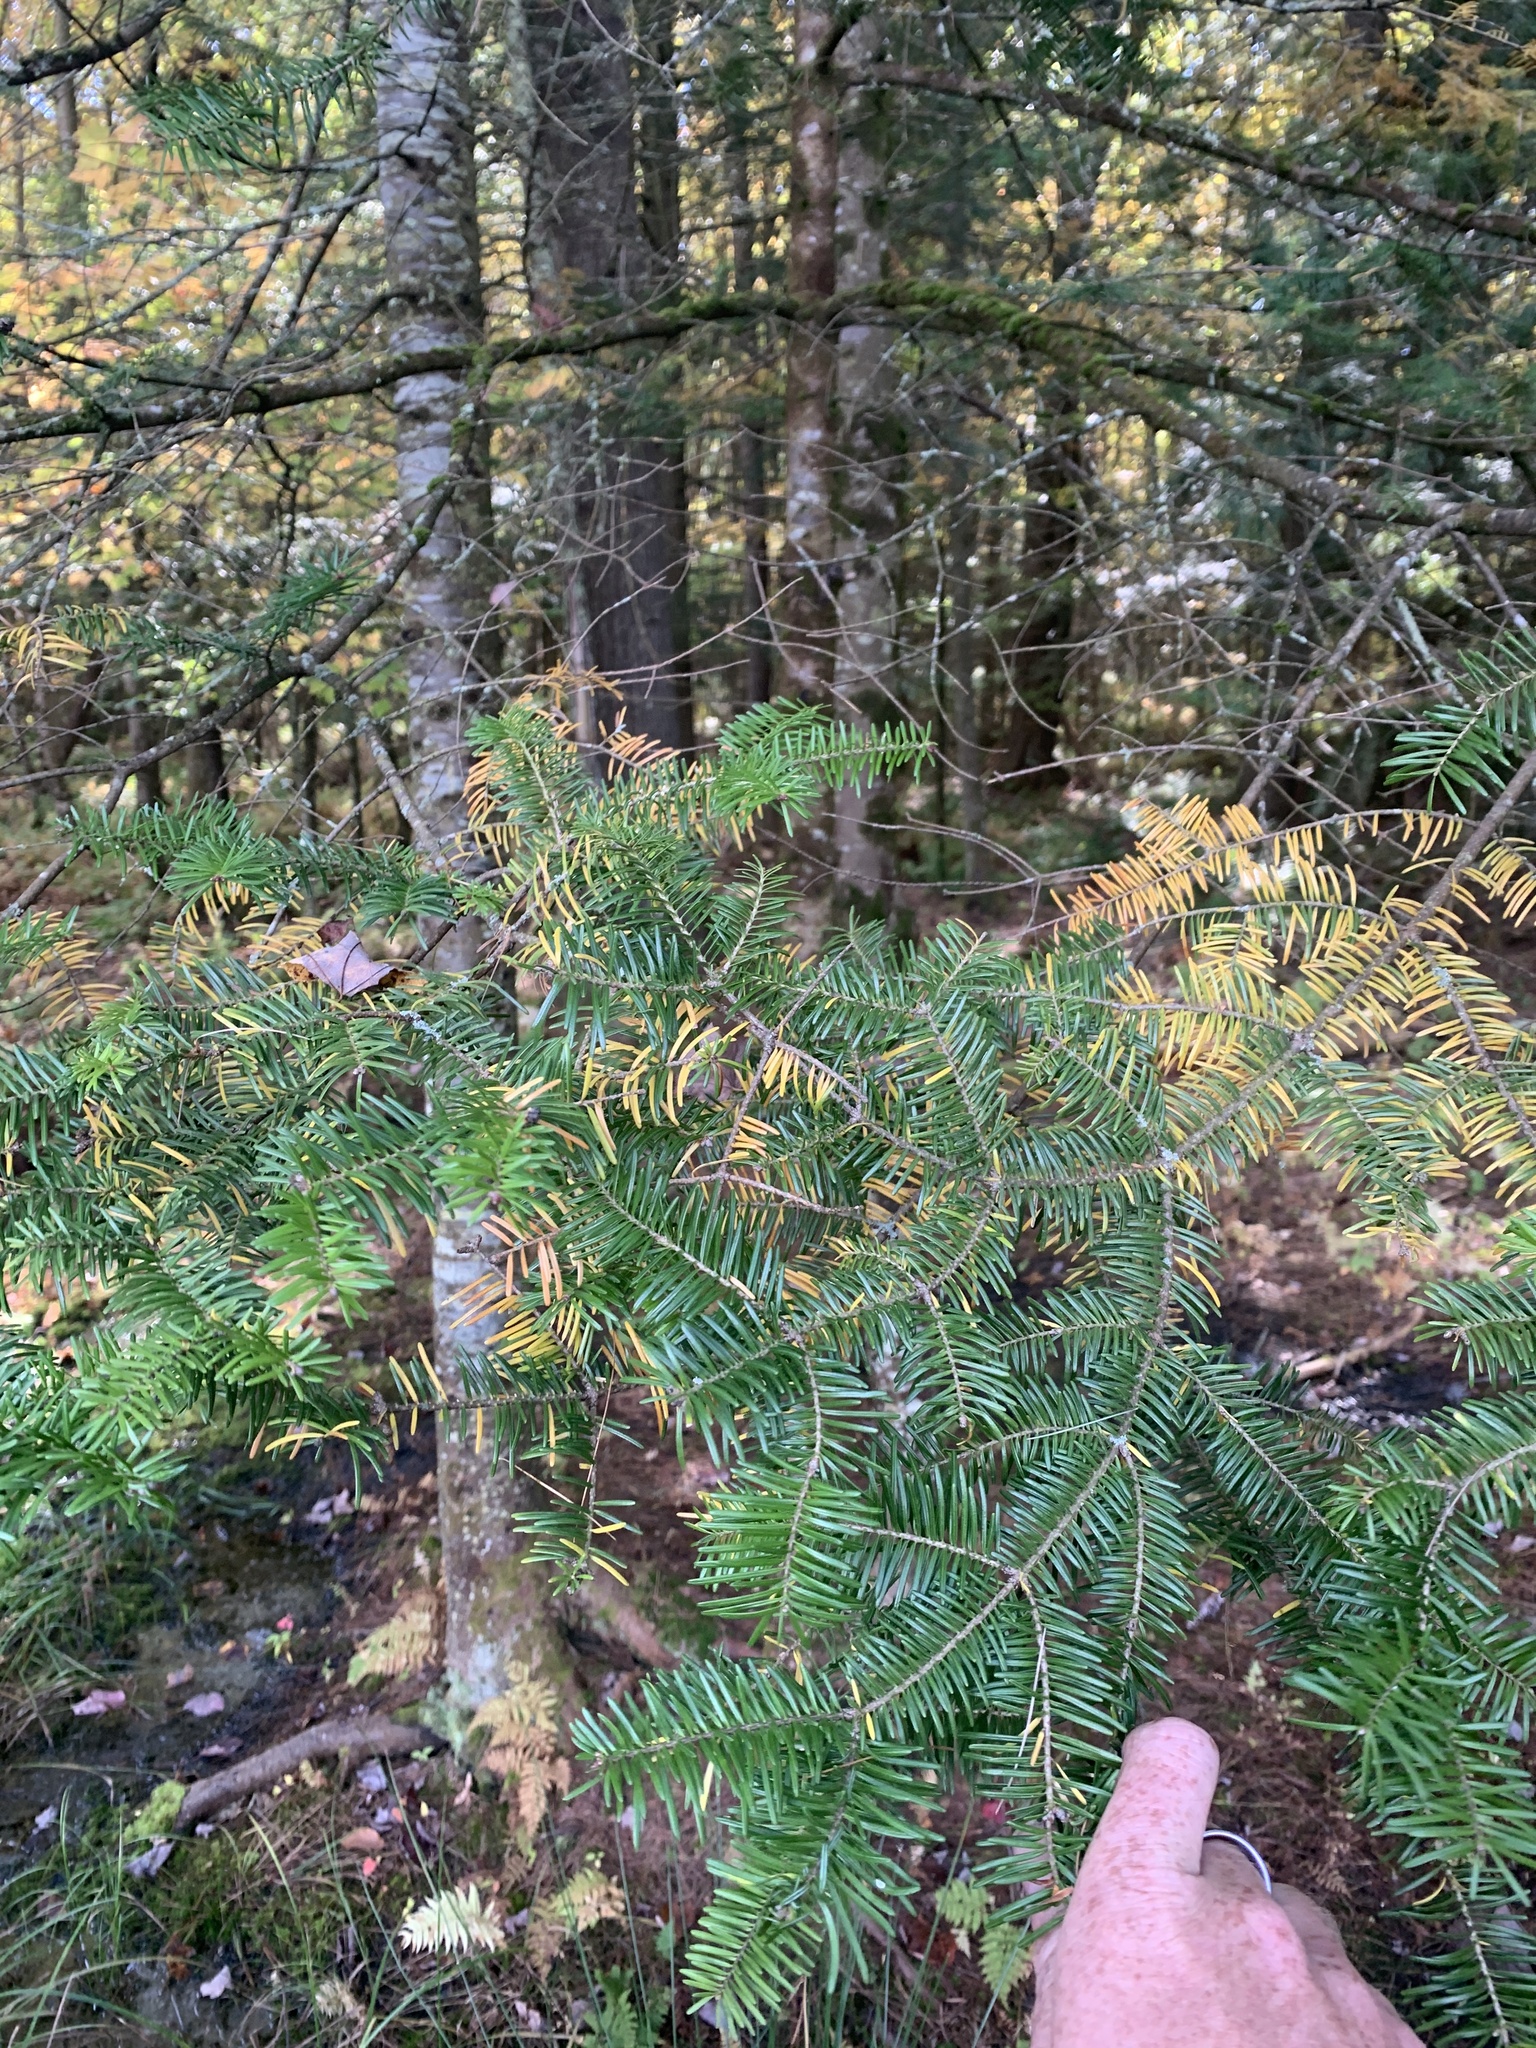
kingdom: Plantae
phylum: Tracheophyta
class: Pinopsida
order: Pinales
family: Pinaceae
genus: Abies
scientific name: Abies balsamea
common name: Balsam fir
